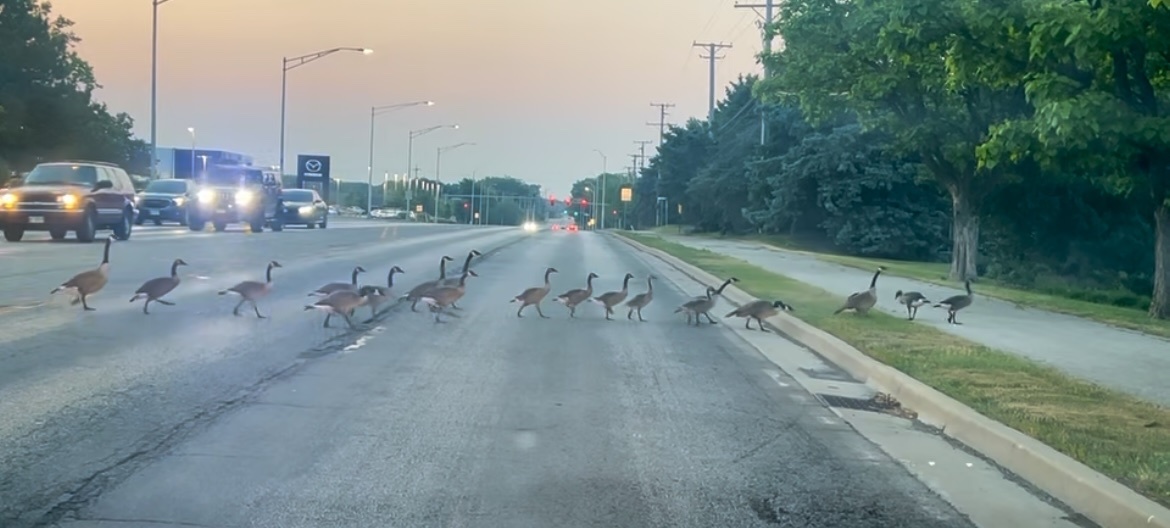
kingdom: Animalia
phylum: Chordata
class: Aves
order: Anseriformes
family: Anatidae
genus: Branta
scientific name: Branta canadensis
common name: Canada goose
